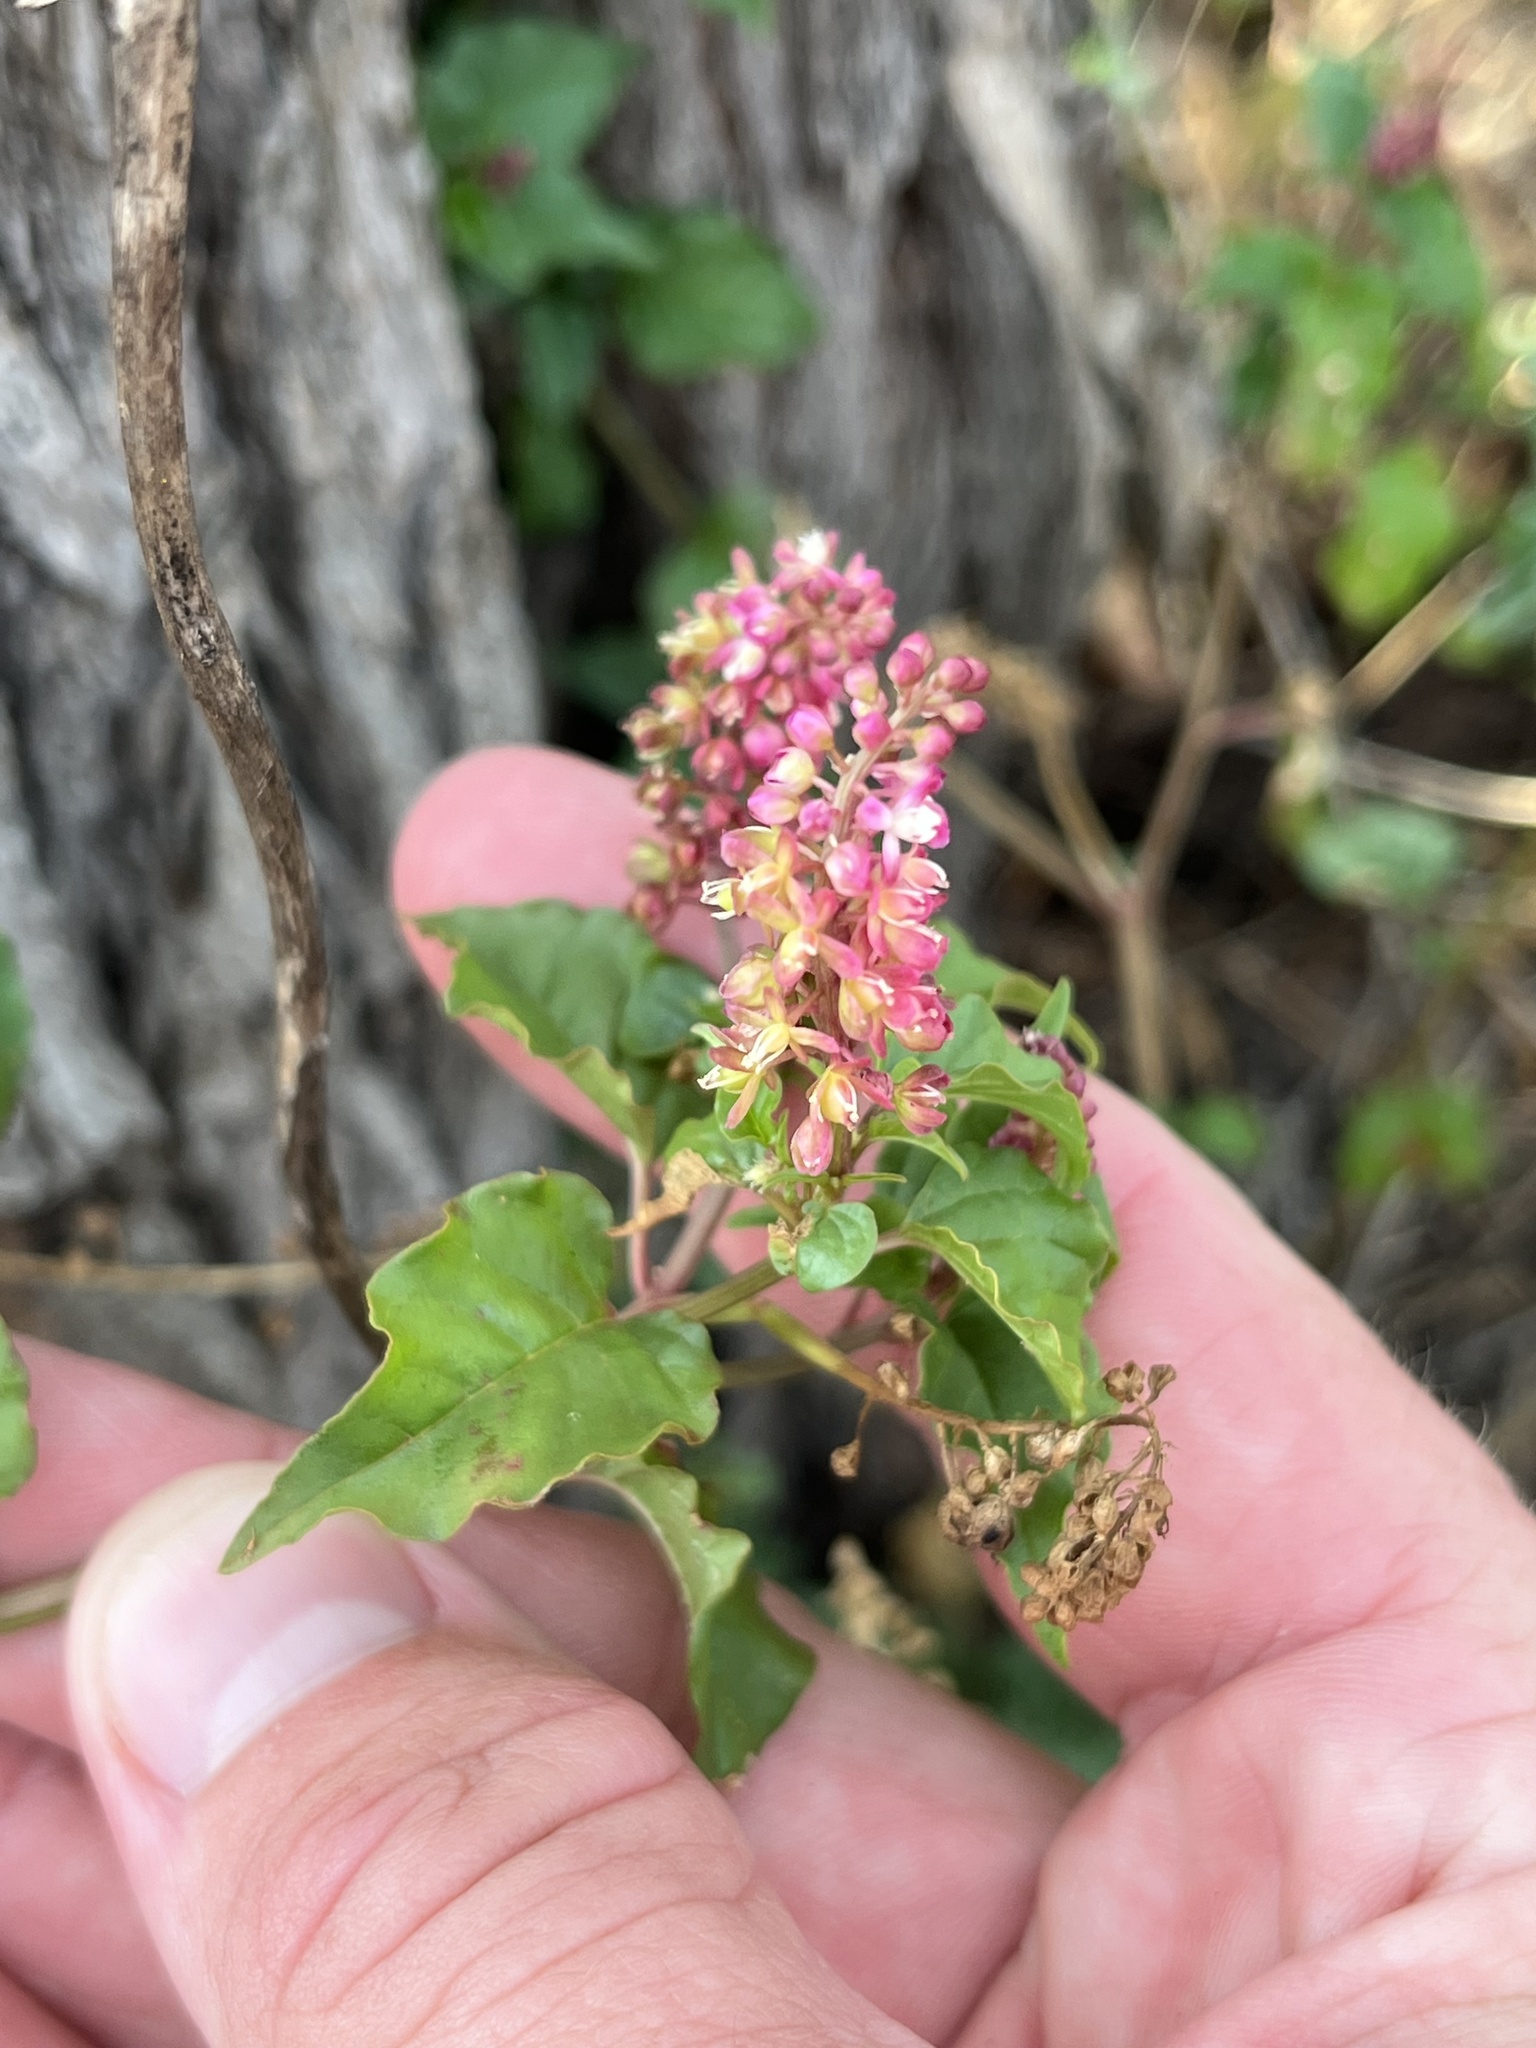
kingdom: Plantae
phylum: Tracheophyta
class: Magnoliopsida
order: Caryophyllales
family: Phytolaccaceae
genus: Rivina
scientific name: Rivina humilis
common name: Rougeplant
